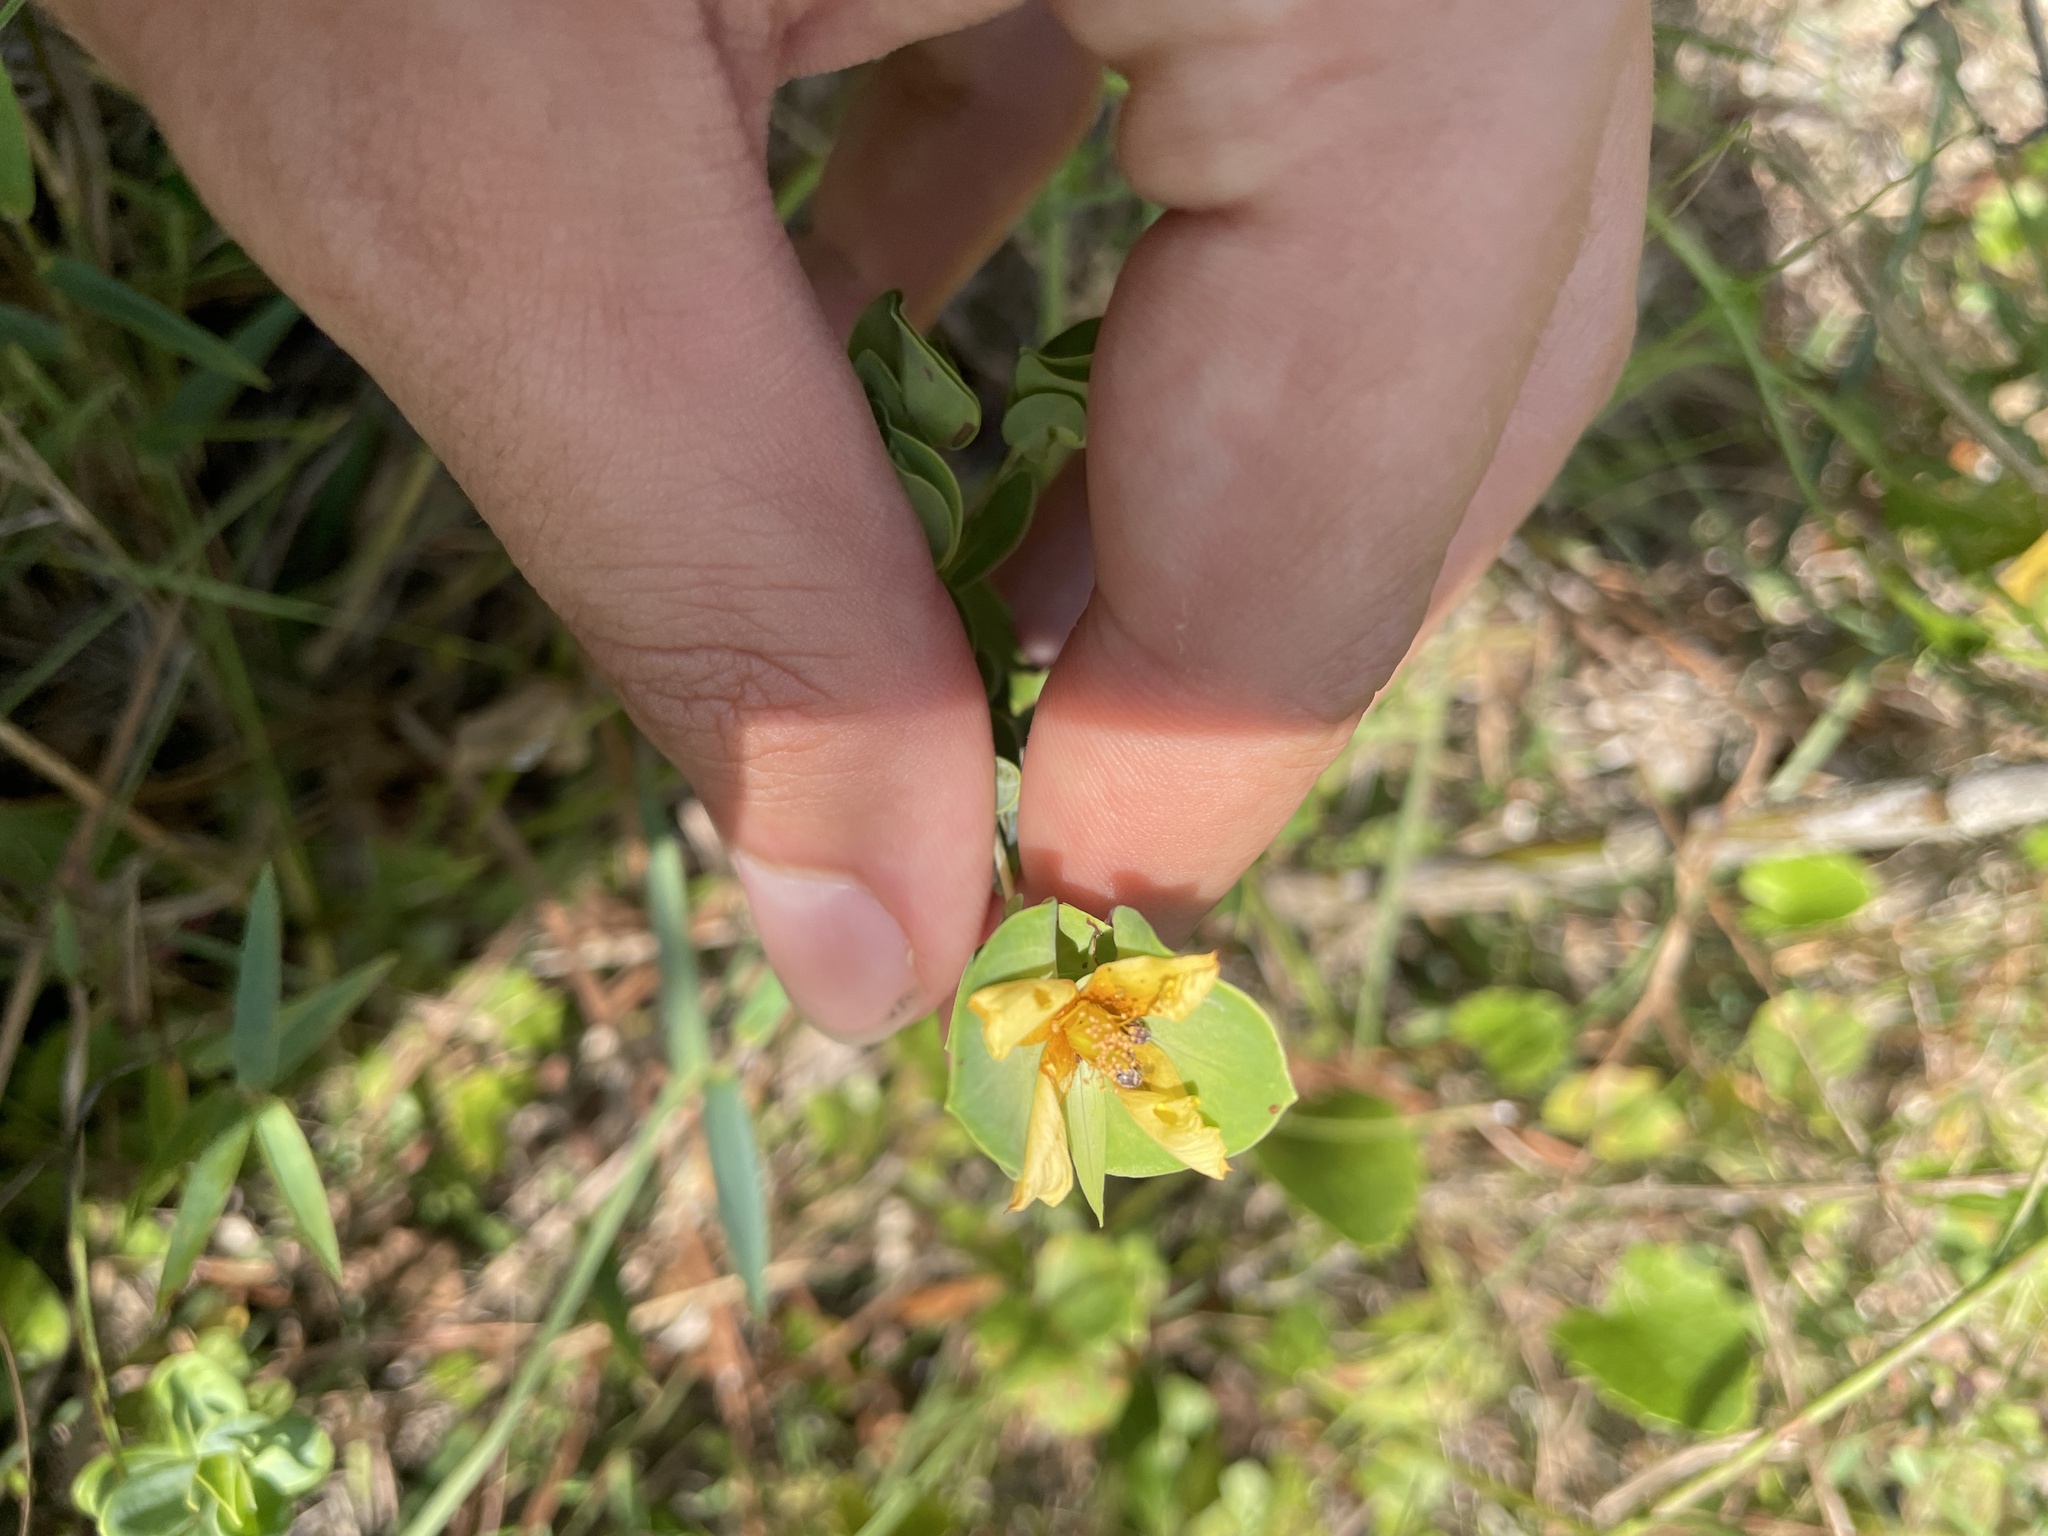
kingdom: Plantae
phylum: Tracheophyta
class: Magnoliopsida
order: Malpighiales
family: Hypericaceae
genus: Hypericum
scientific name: Hypericum crux-andreae
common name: St.-peter's-wort
